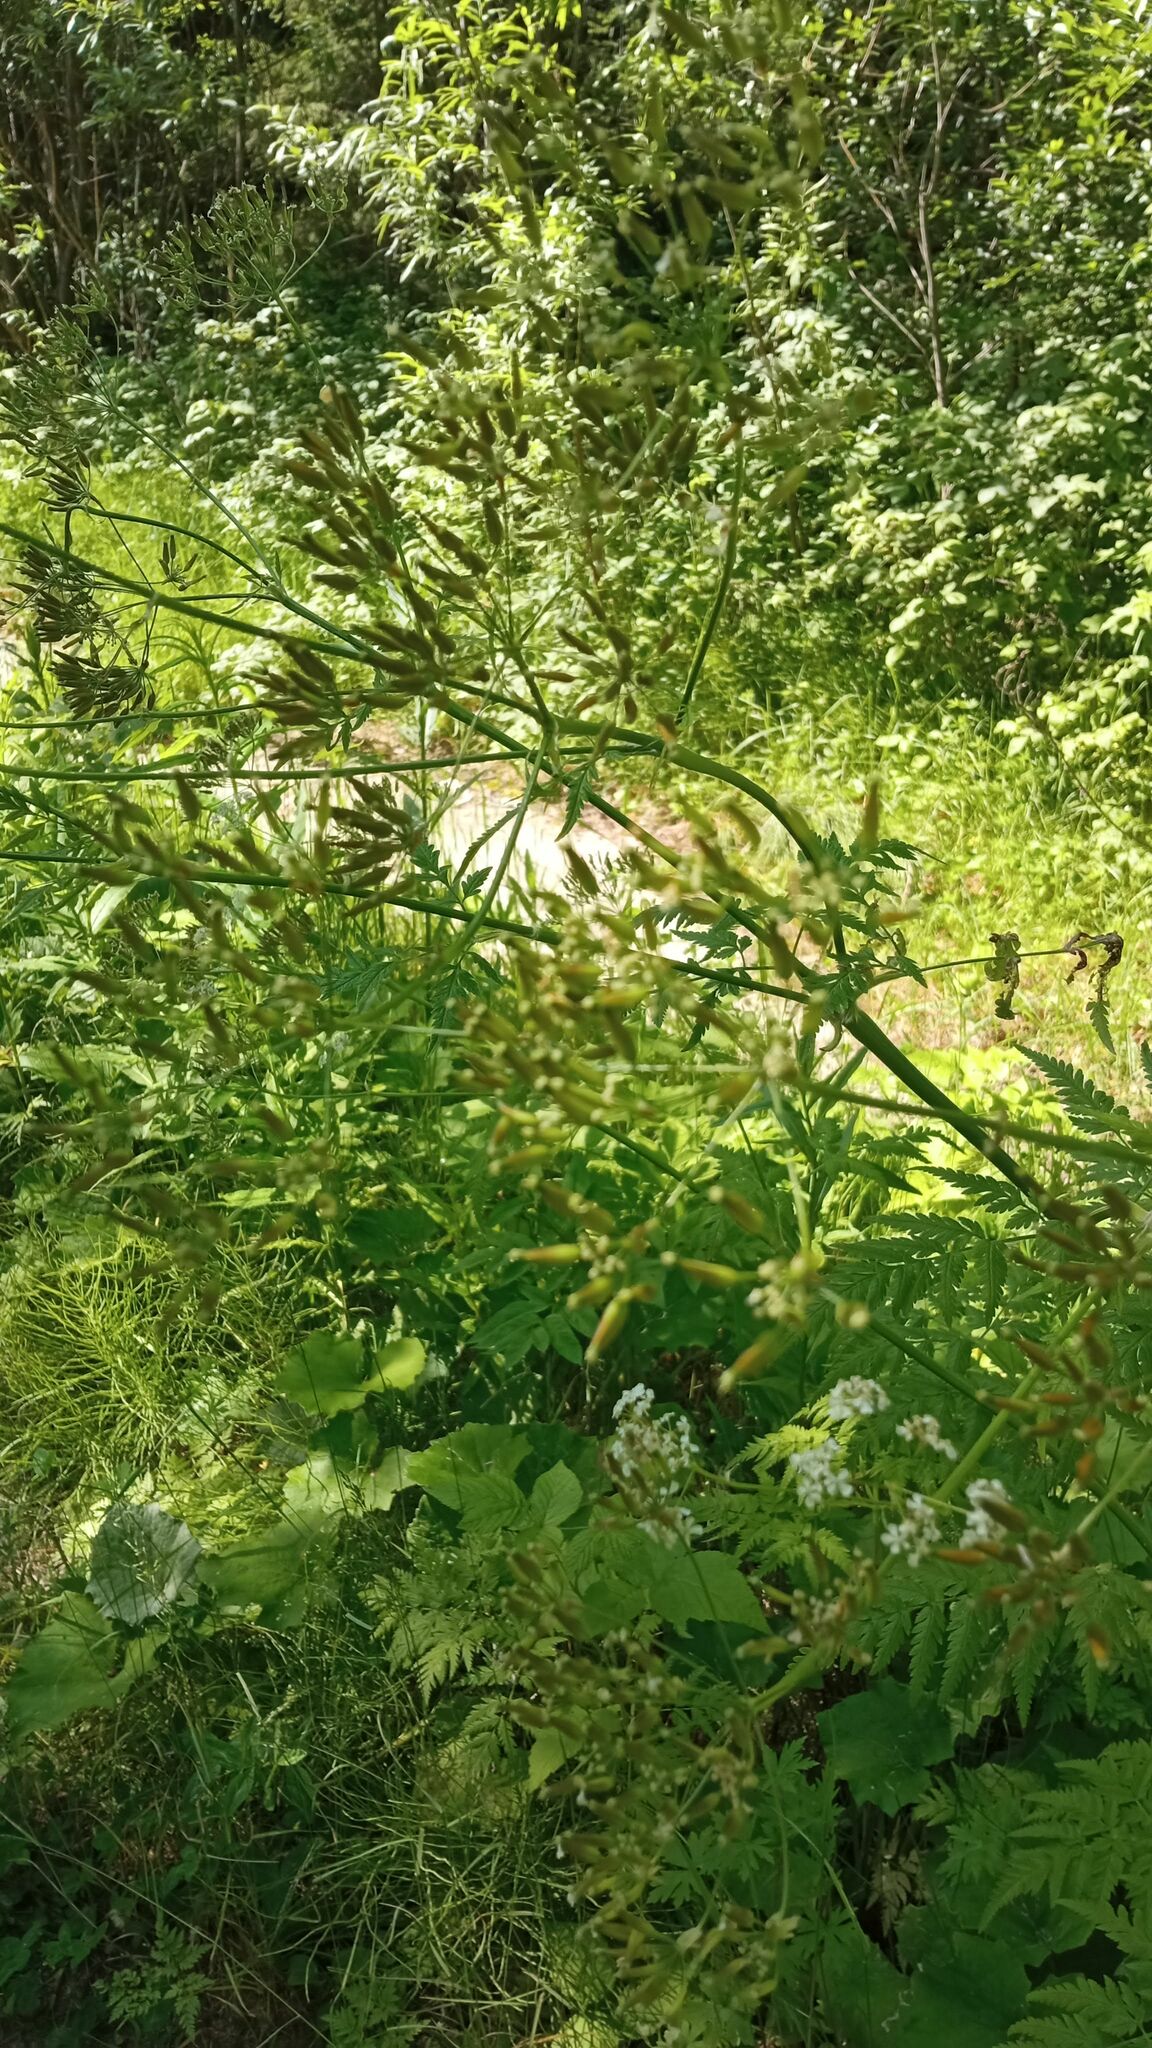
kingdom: Plantae
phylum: Tracheophyta
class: Magnoliopsida
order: Apiales
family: Apiaceae
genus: Anthriscus
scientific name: Anthriscus sylvestris
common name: Cow parsley
